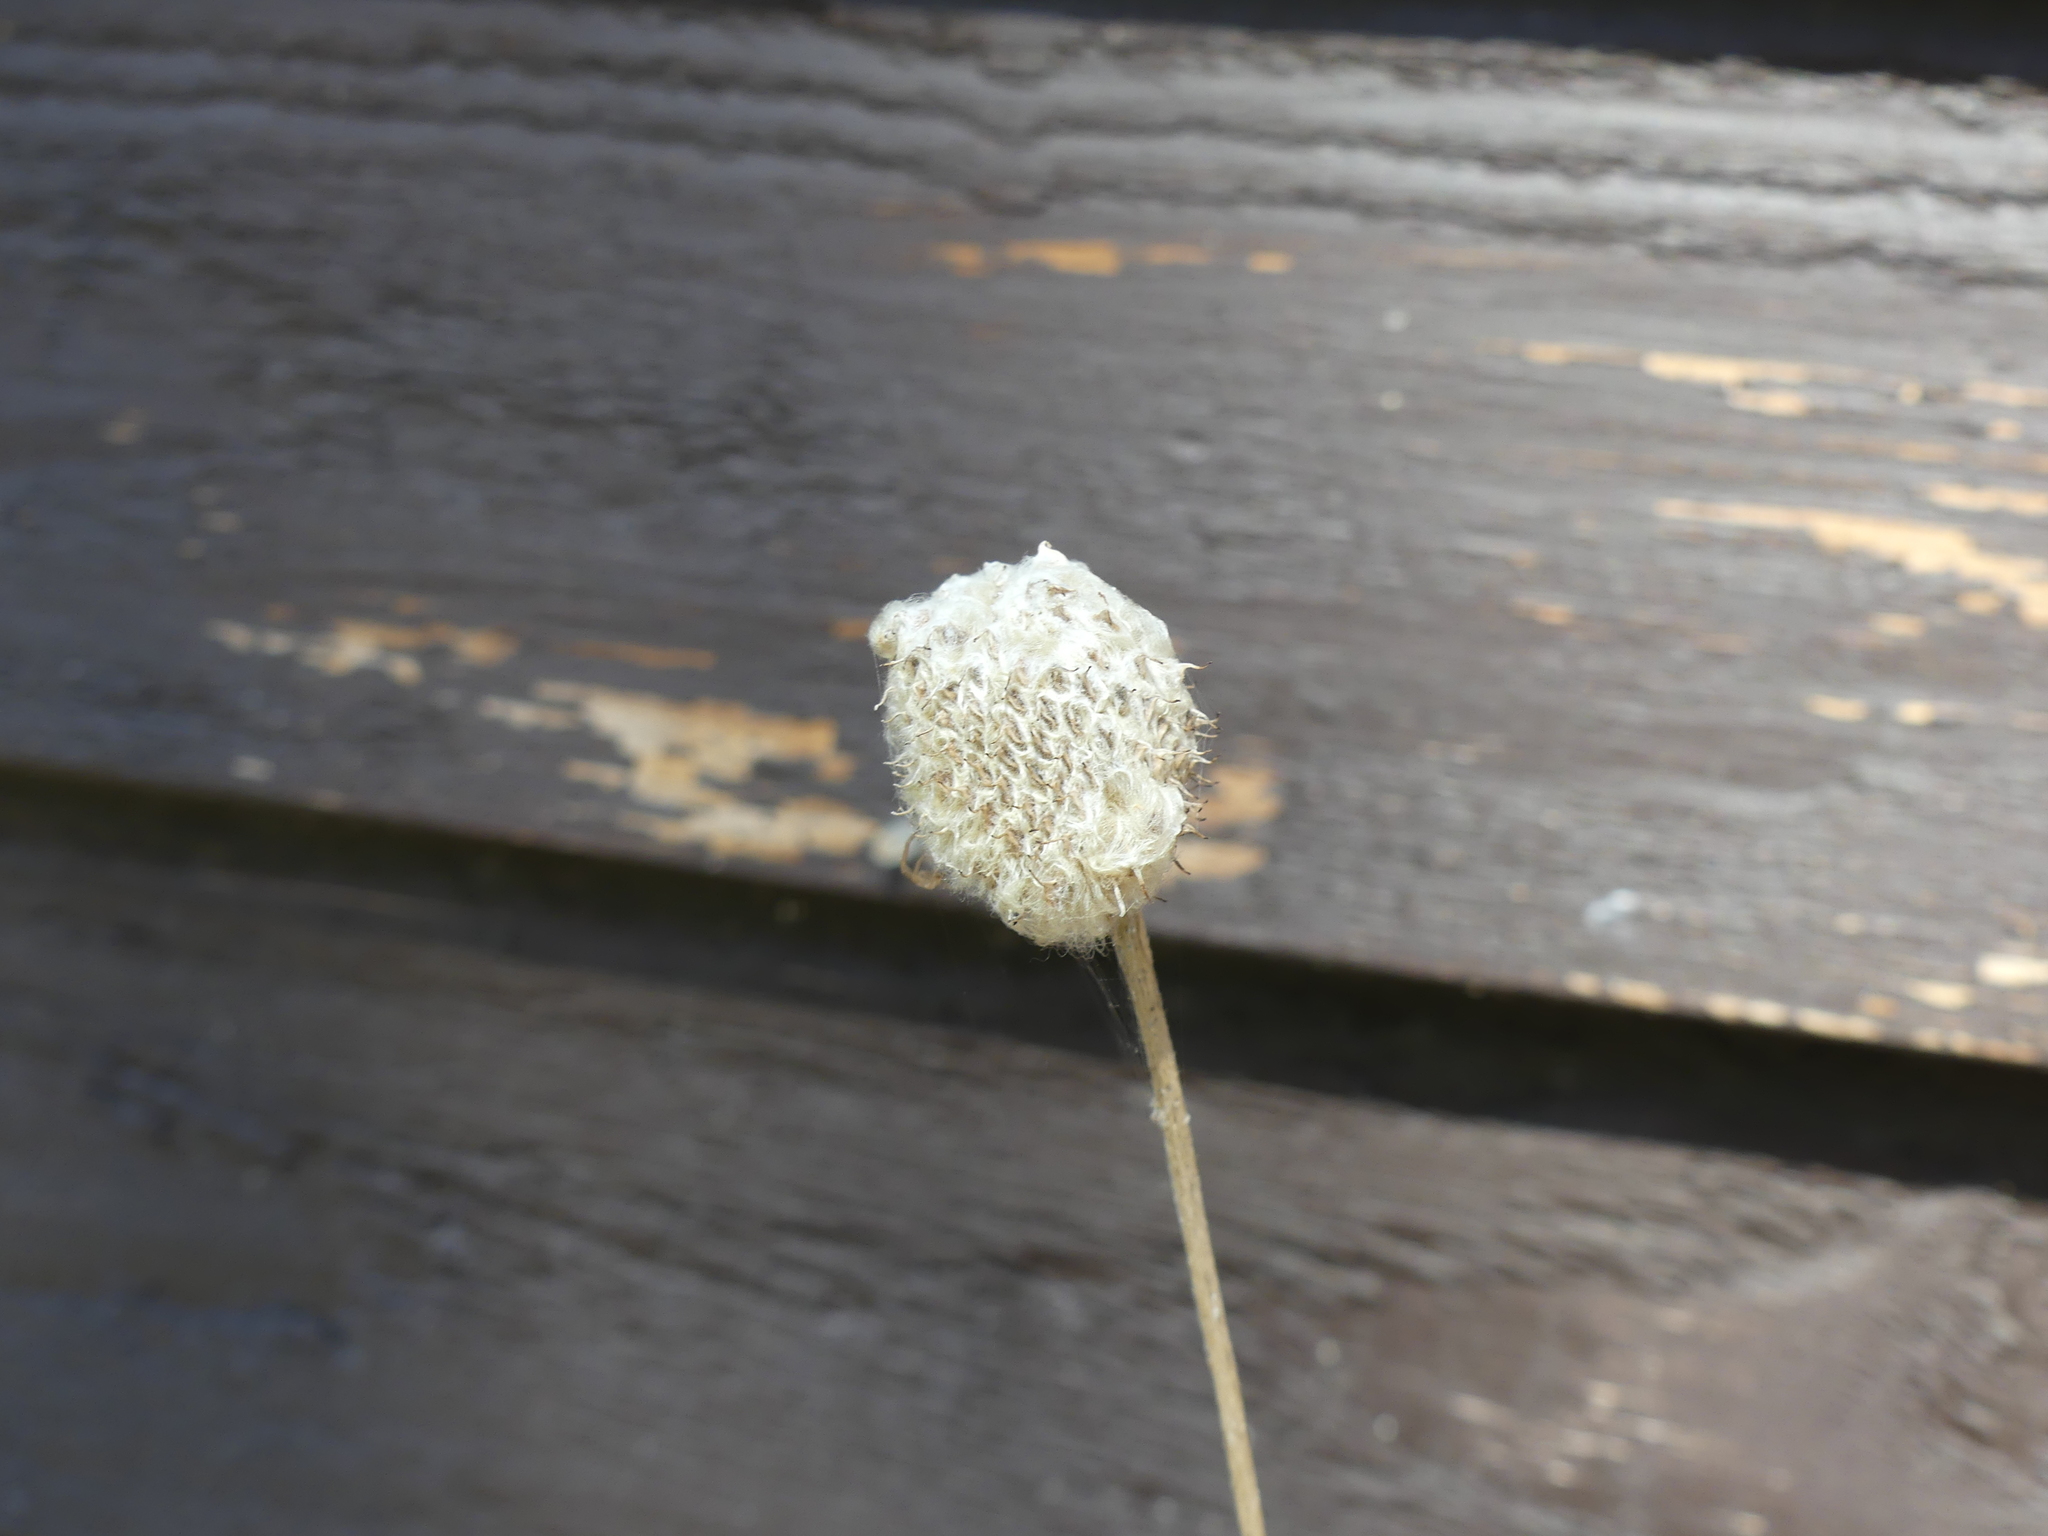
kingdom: Plantae
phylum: Tracheophyta
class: Magnoliopsida
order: Ranunculales
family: Ranunculaceae
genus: Anemone
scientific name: Anemone virginiana
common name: Tall anemone
